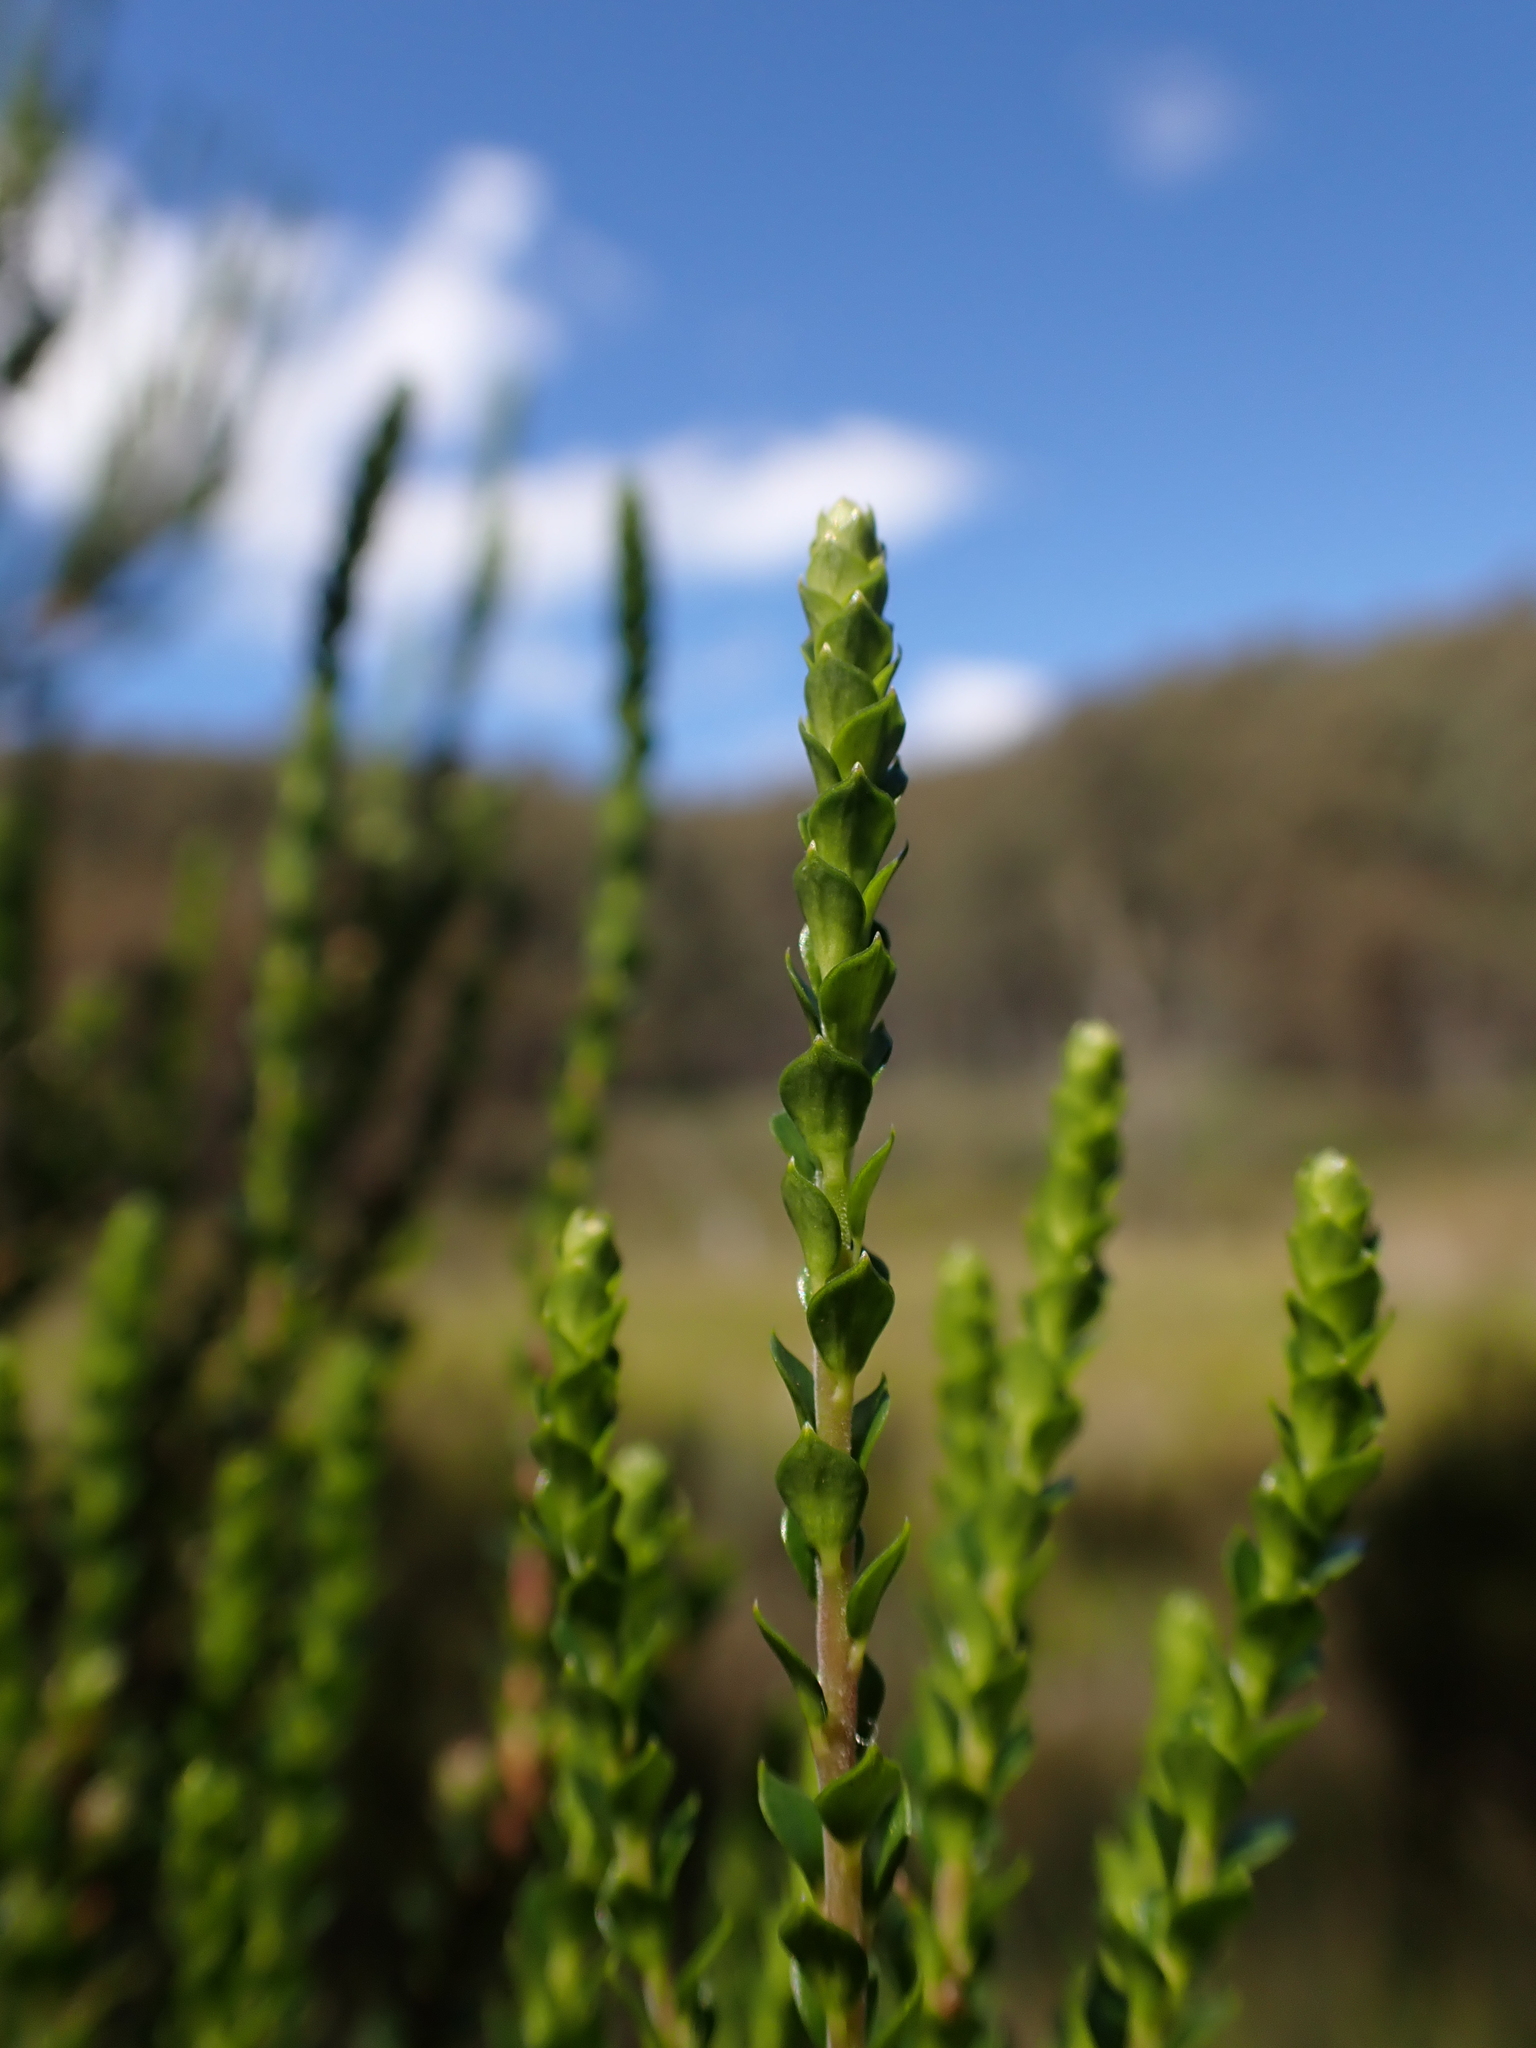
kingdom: Plantae
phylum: Tracheophyta
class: Magnoliopsida
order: Ericales
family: Ericaceae
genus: Epacris
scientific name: Epacris rhombifolia
